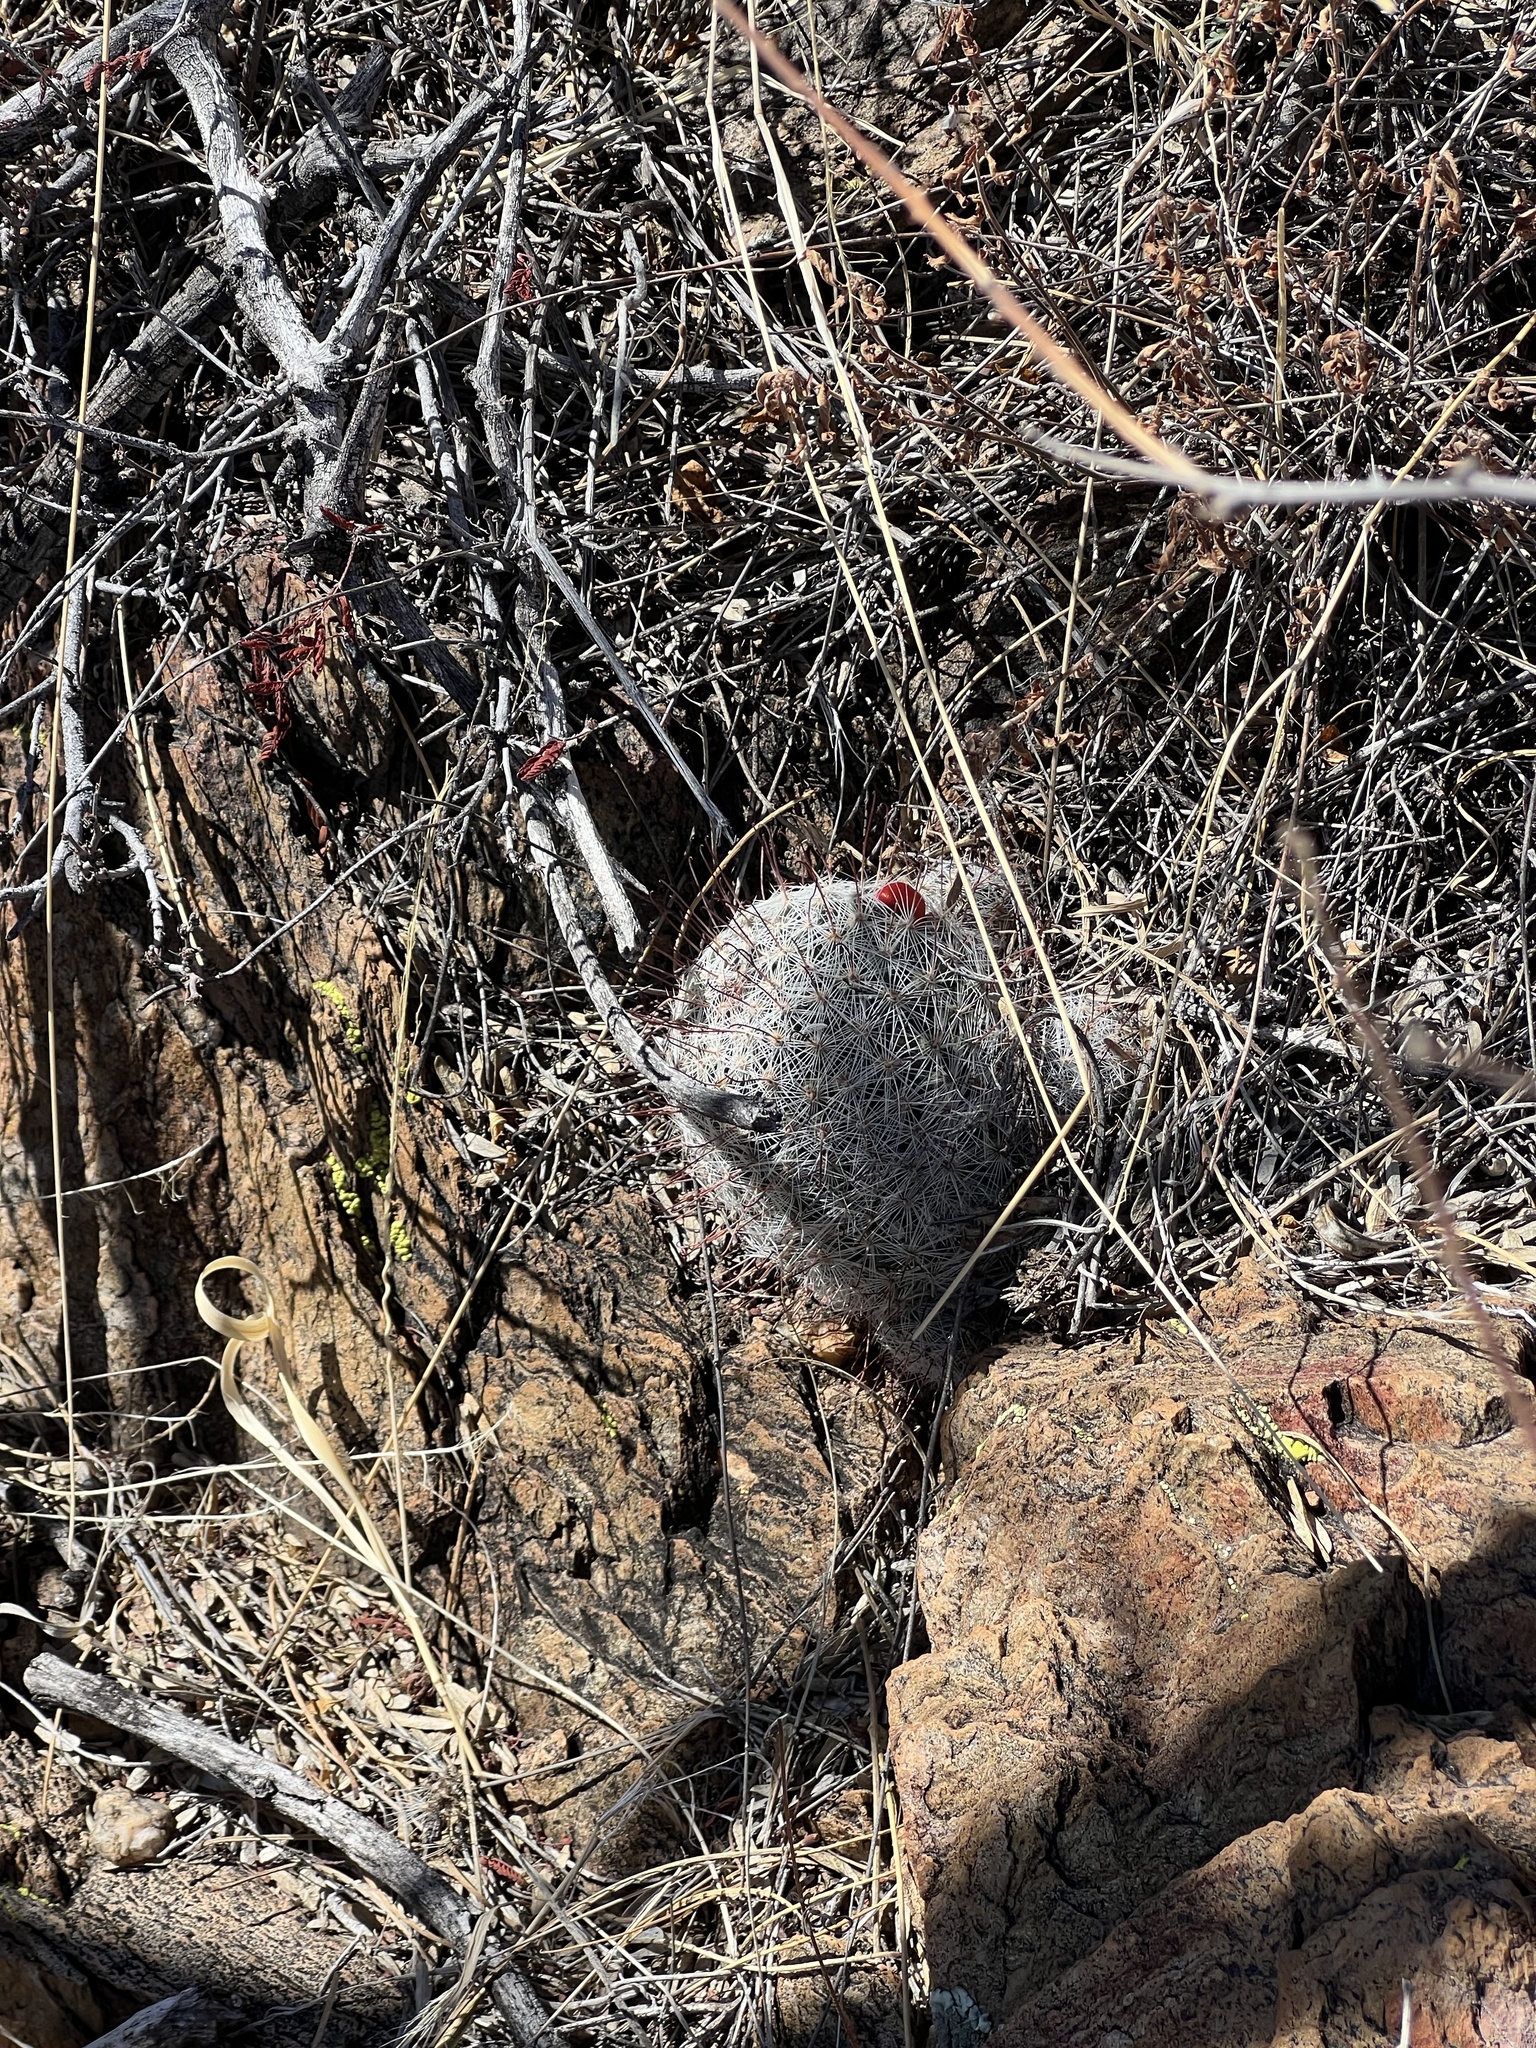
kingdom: Plantae
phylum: Tracheophyta
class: Magnoliopsida
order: Caryophyllales
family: Cactaceae
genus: Cochemiea
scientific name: Cochemiea grahamii
